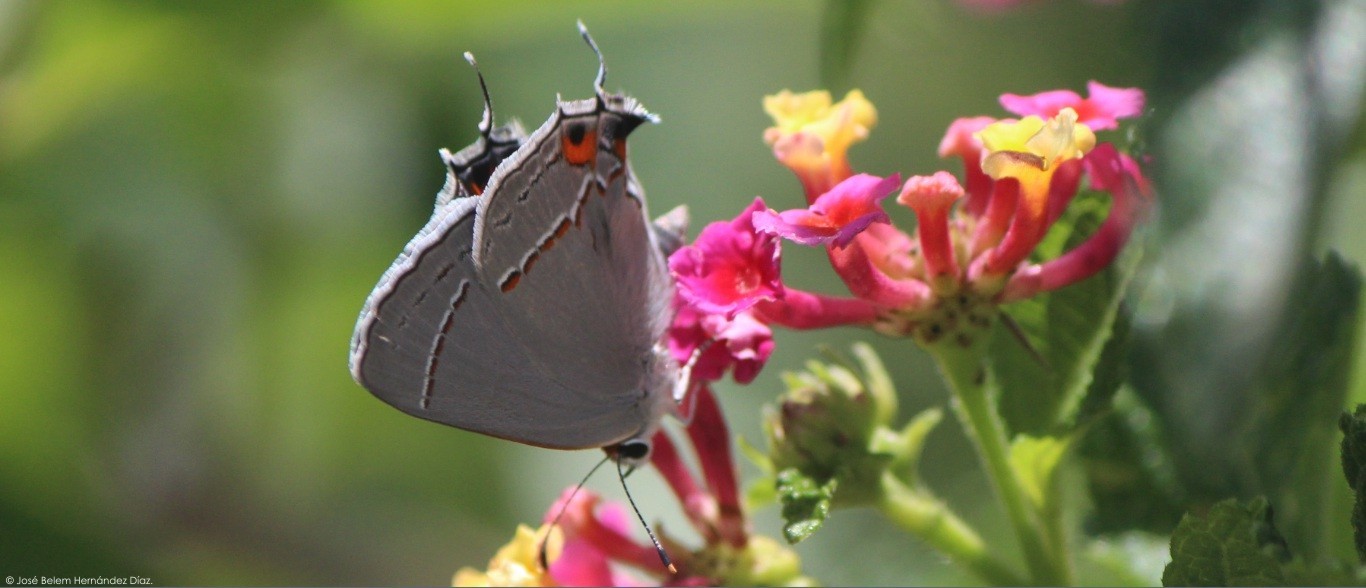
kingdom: Animalia
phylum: Arthropoda
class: Insecta
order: Lepidoptera
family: Lycaenidae
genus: Strymon
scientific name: Strymon melinus
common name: Gray hairstreak
